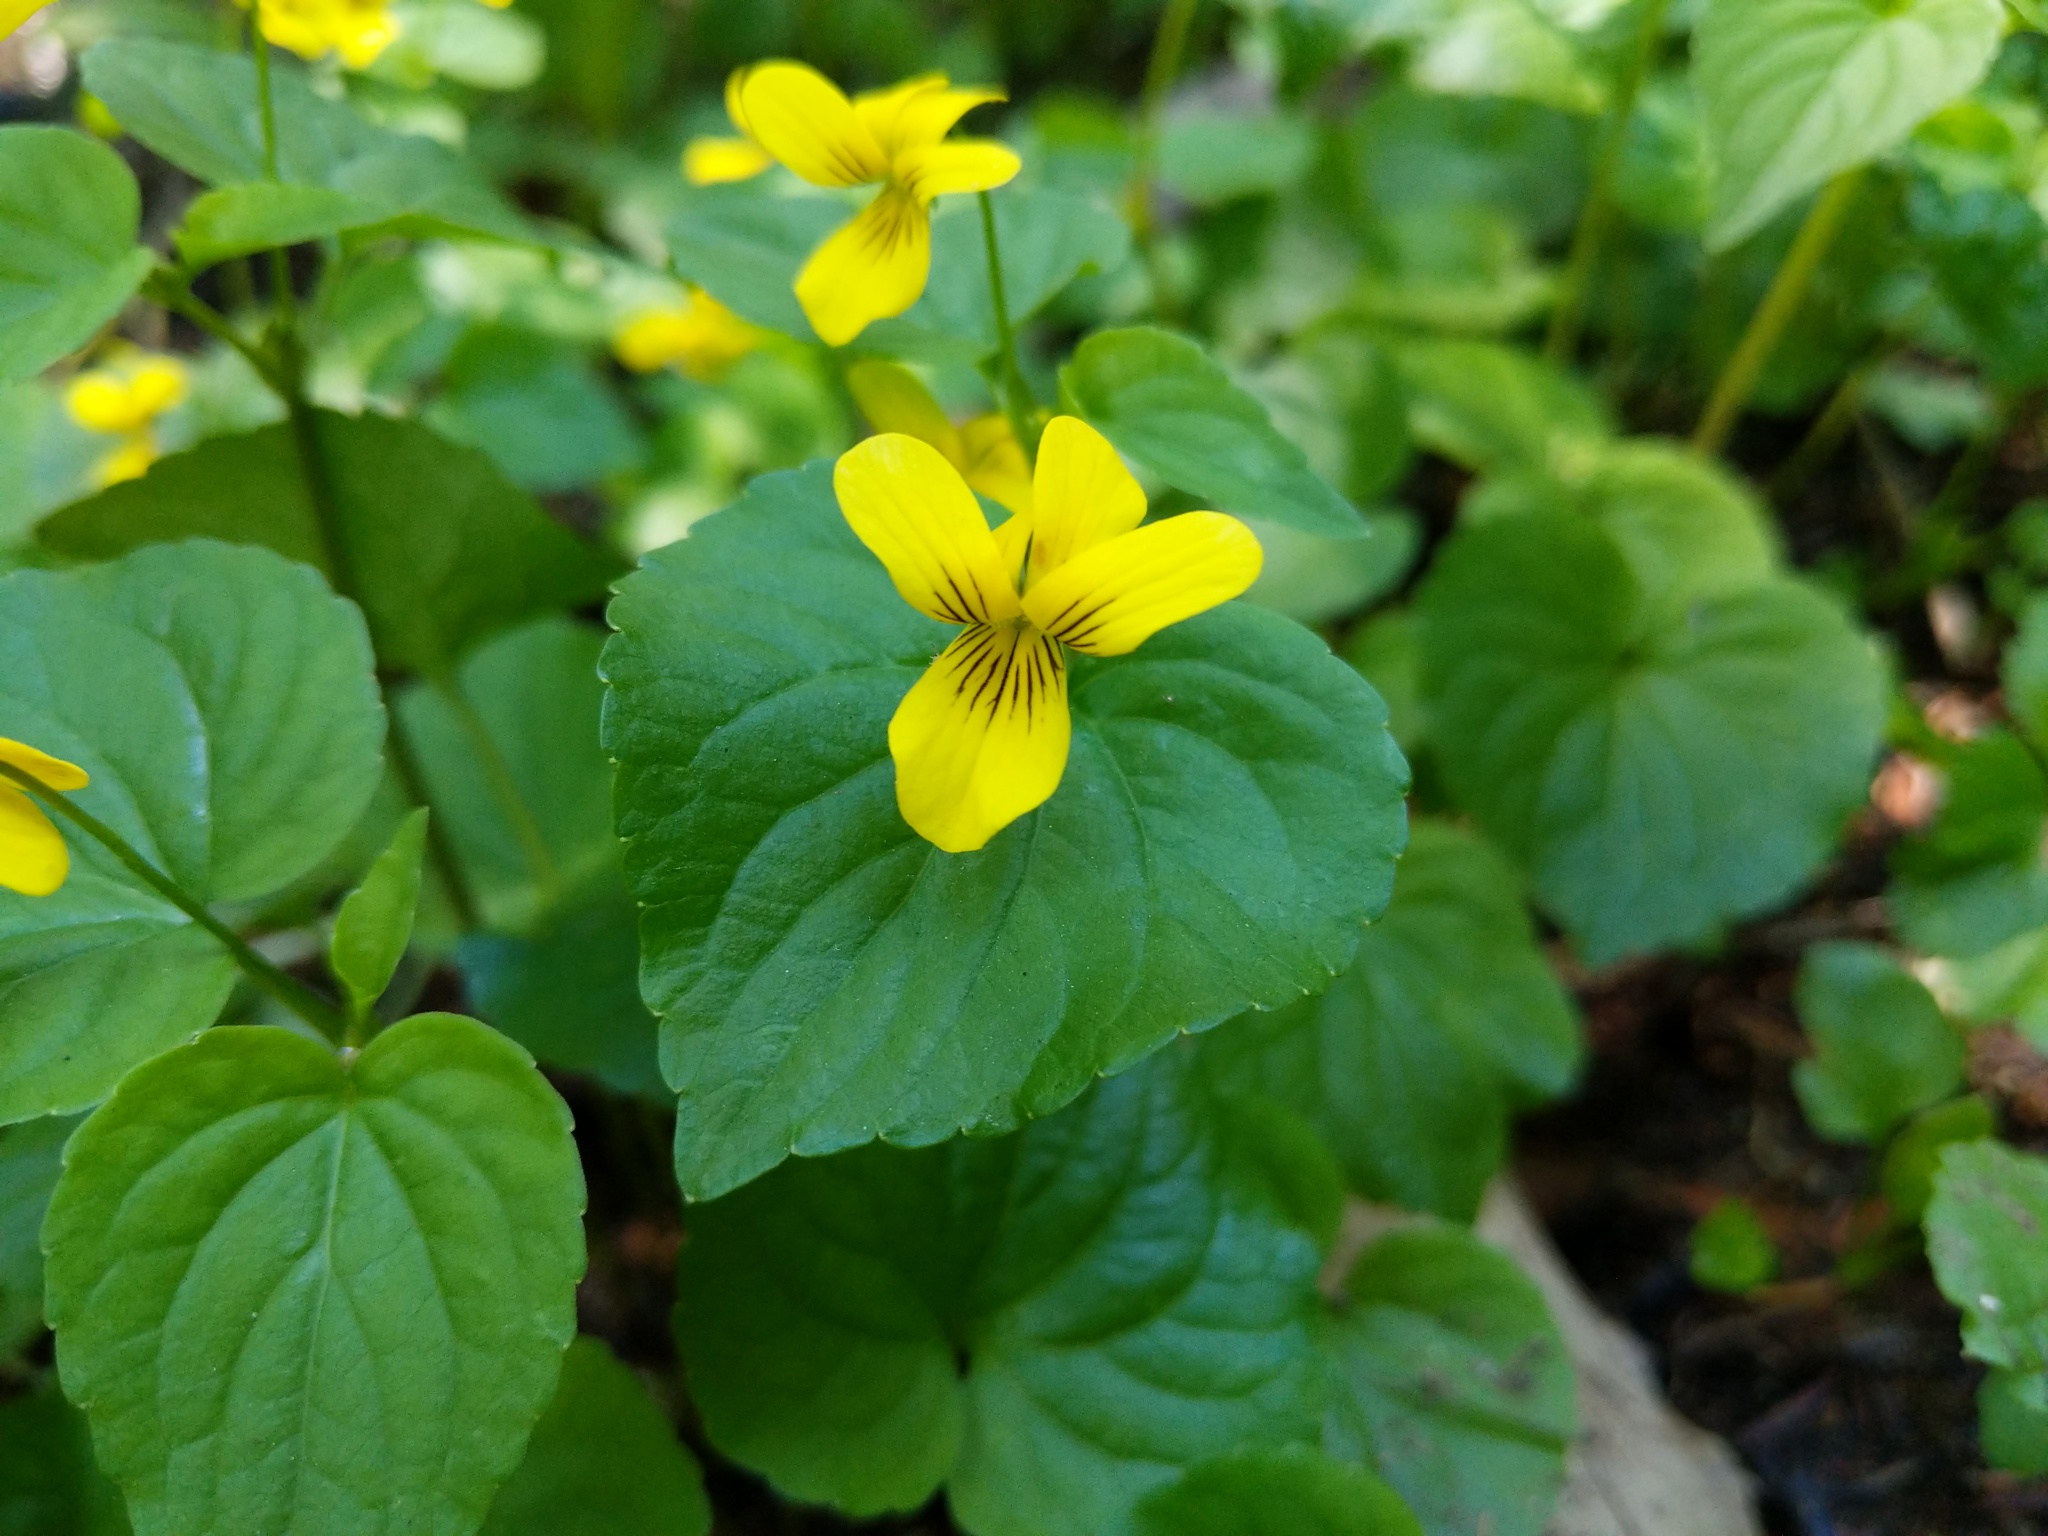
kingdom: Plantae
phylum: Tracheophyta
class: Magnoliopsida
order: Malpighiales
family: Violaceae
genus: Viola
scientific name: Viola glabella
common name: Stream violet
